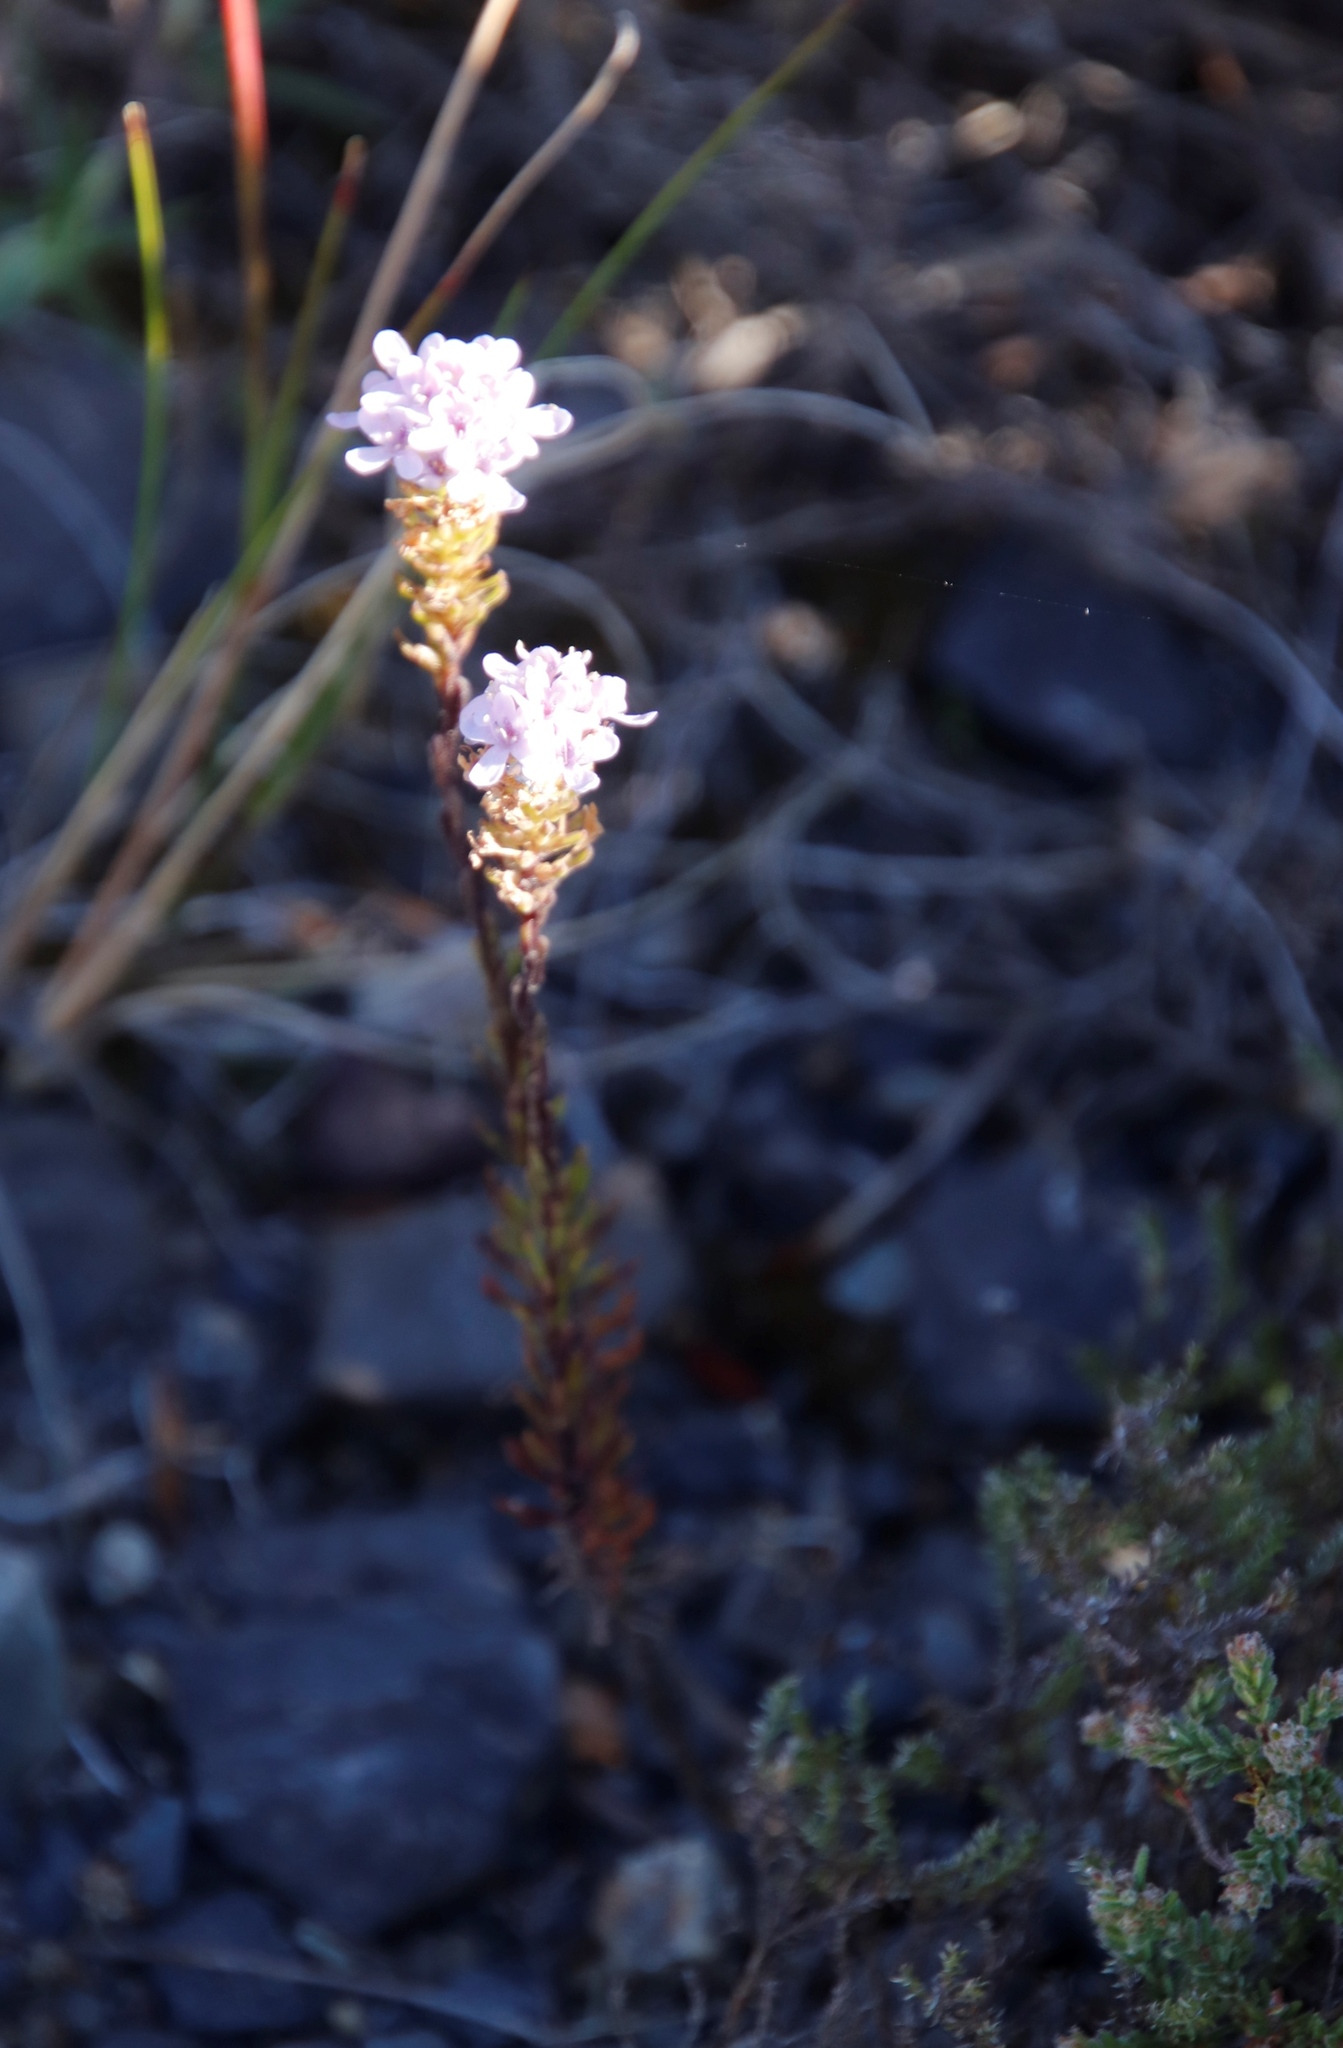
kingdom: Plantae
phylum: Tracheophyta
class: Magnoliopsida
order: Lamiales
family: Scrophulariaceae
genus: Pseudoselago
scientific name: Pseudoselago spuria
